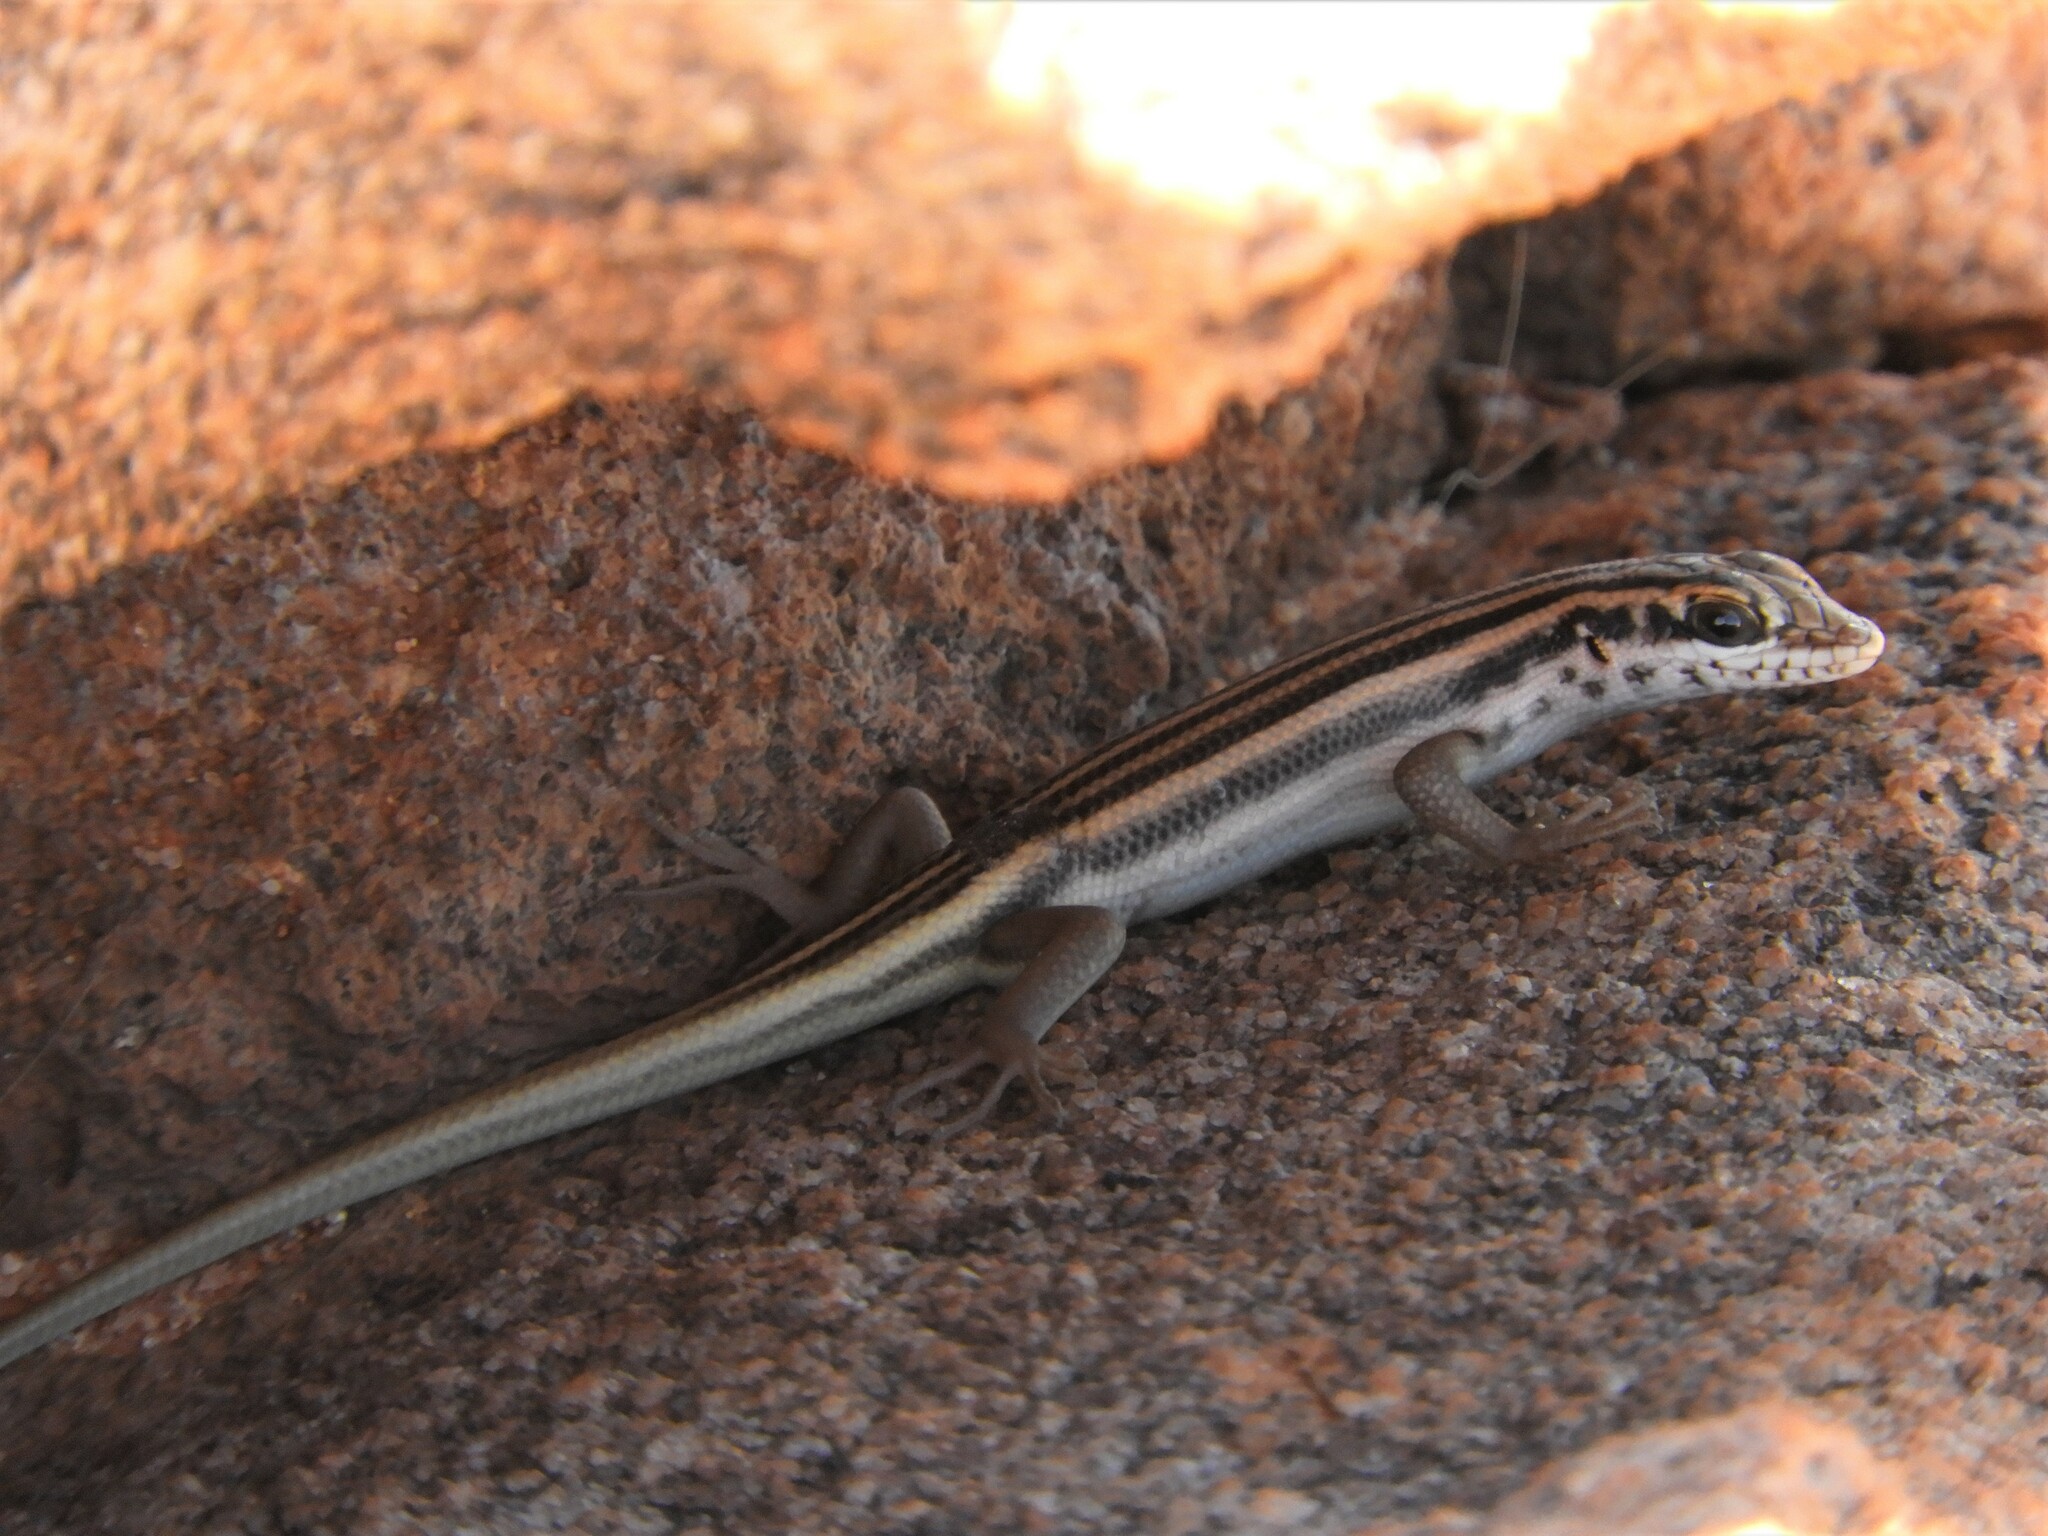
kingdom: Animalia
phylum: Chordata
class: Squamata
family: Scincidae
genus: Trachylepis
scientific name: Trachylepis sulcata
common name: Western rock skink
